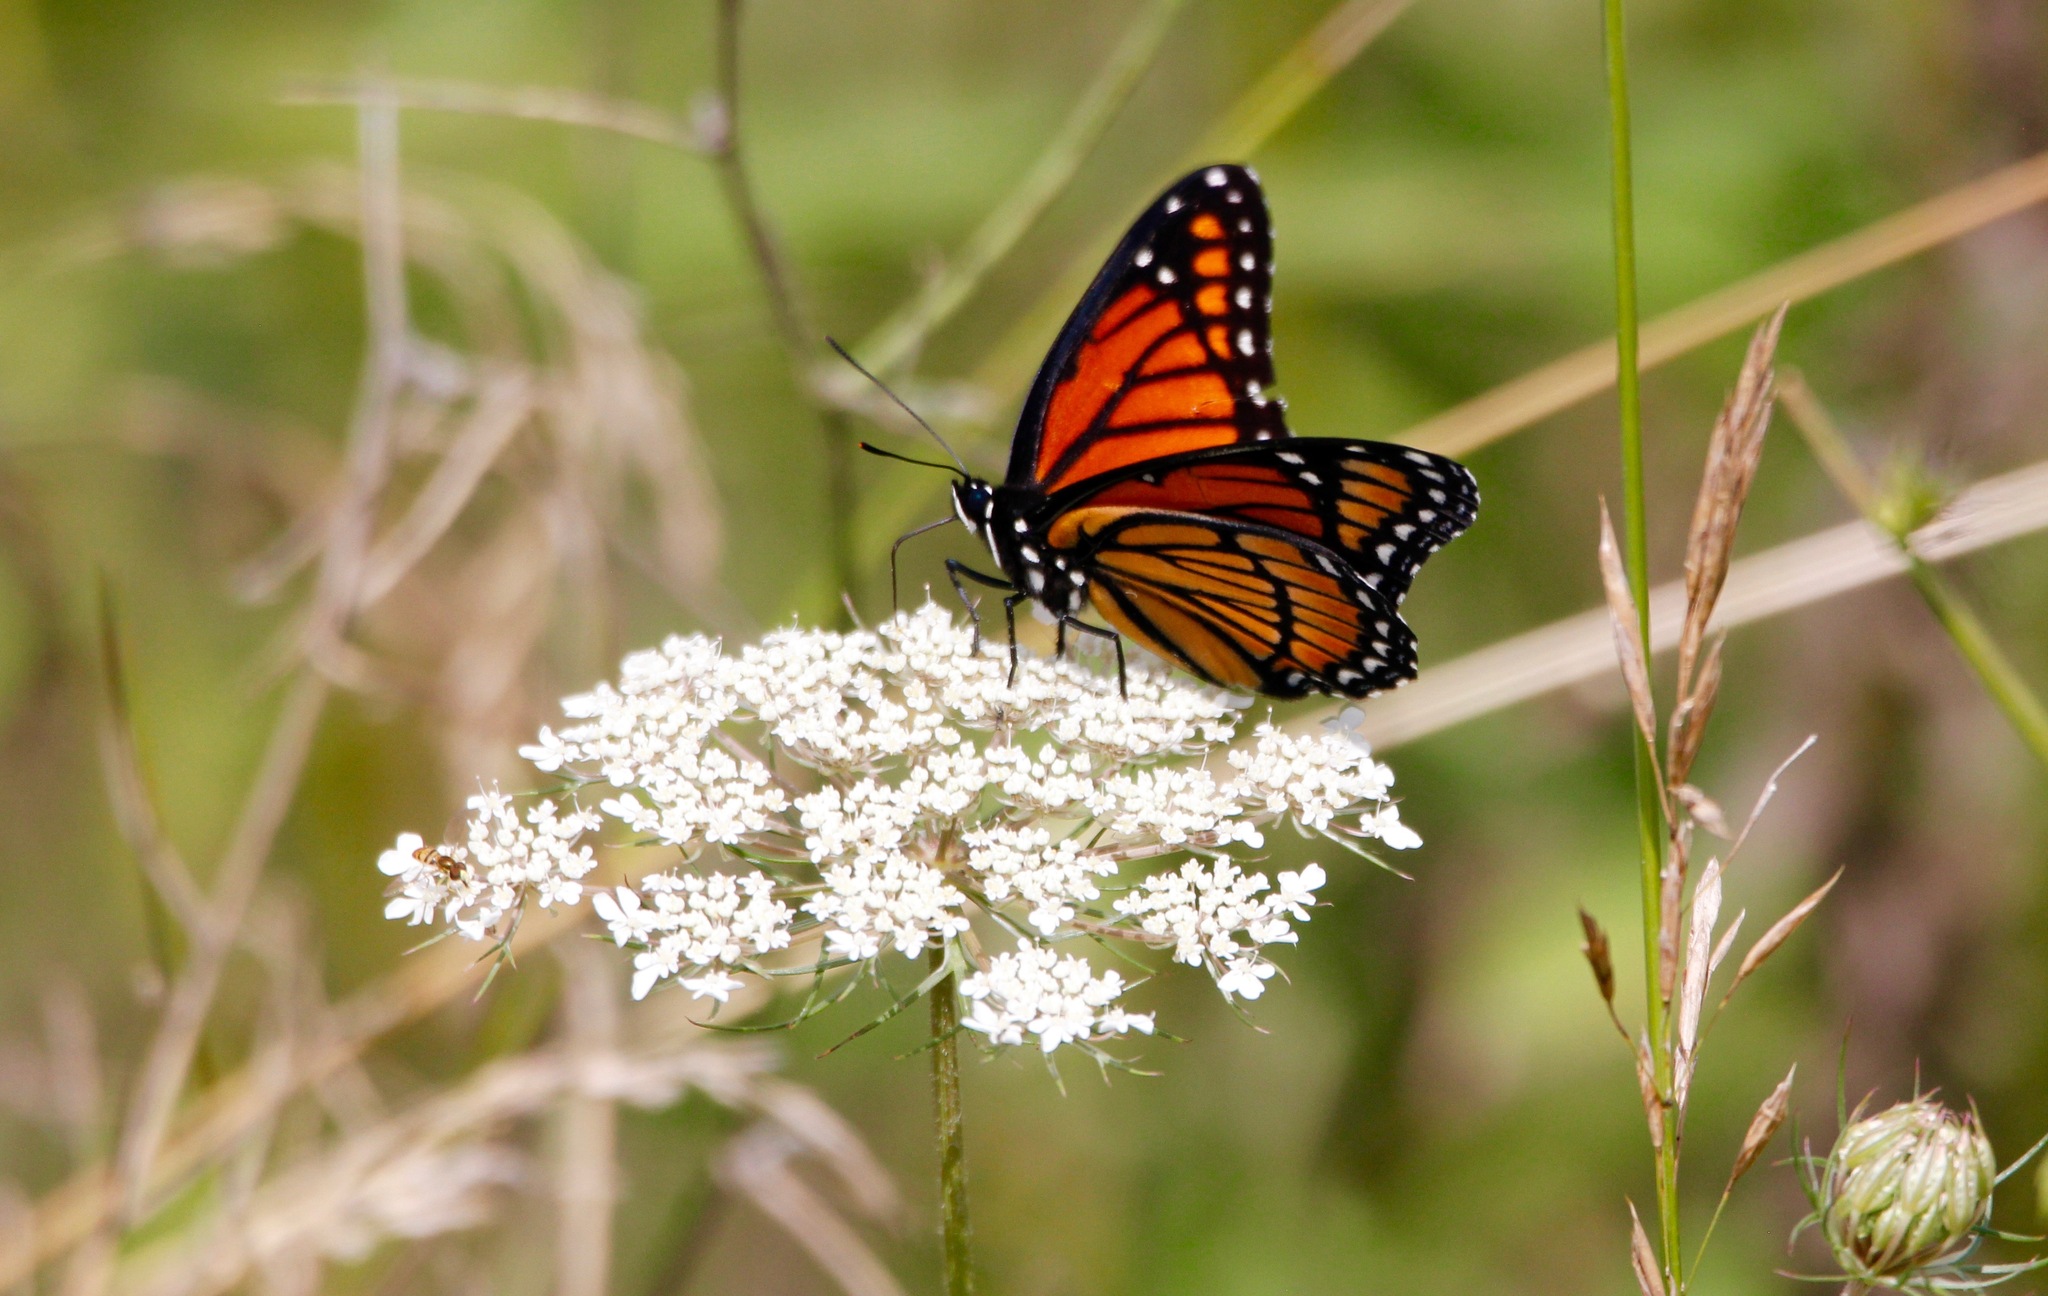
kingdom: Animalia
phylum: Arthropoda
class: Insecta
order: Lepidoptera
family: Nymphalidae
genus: Limenitis
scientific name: Limenitis archippus
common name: Viceroy
